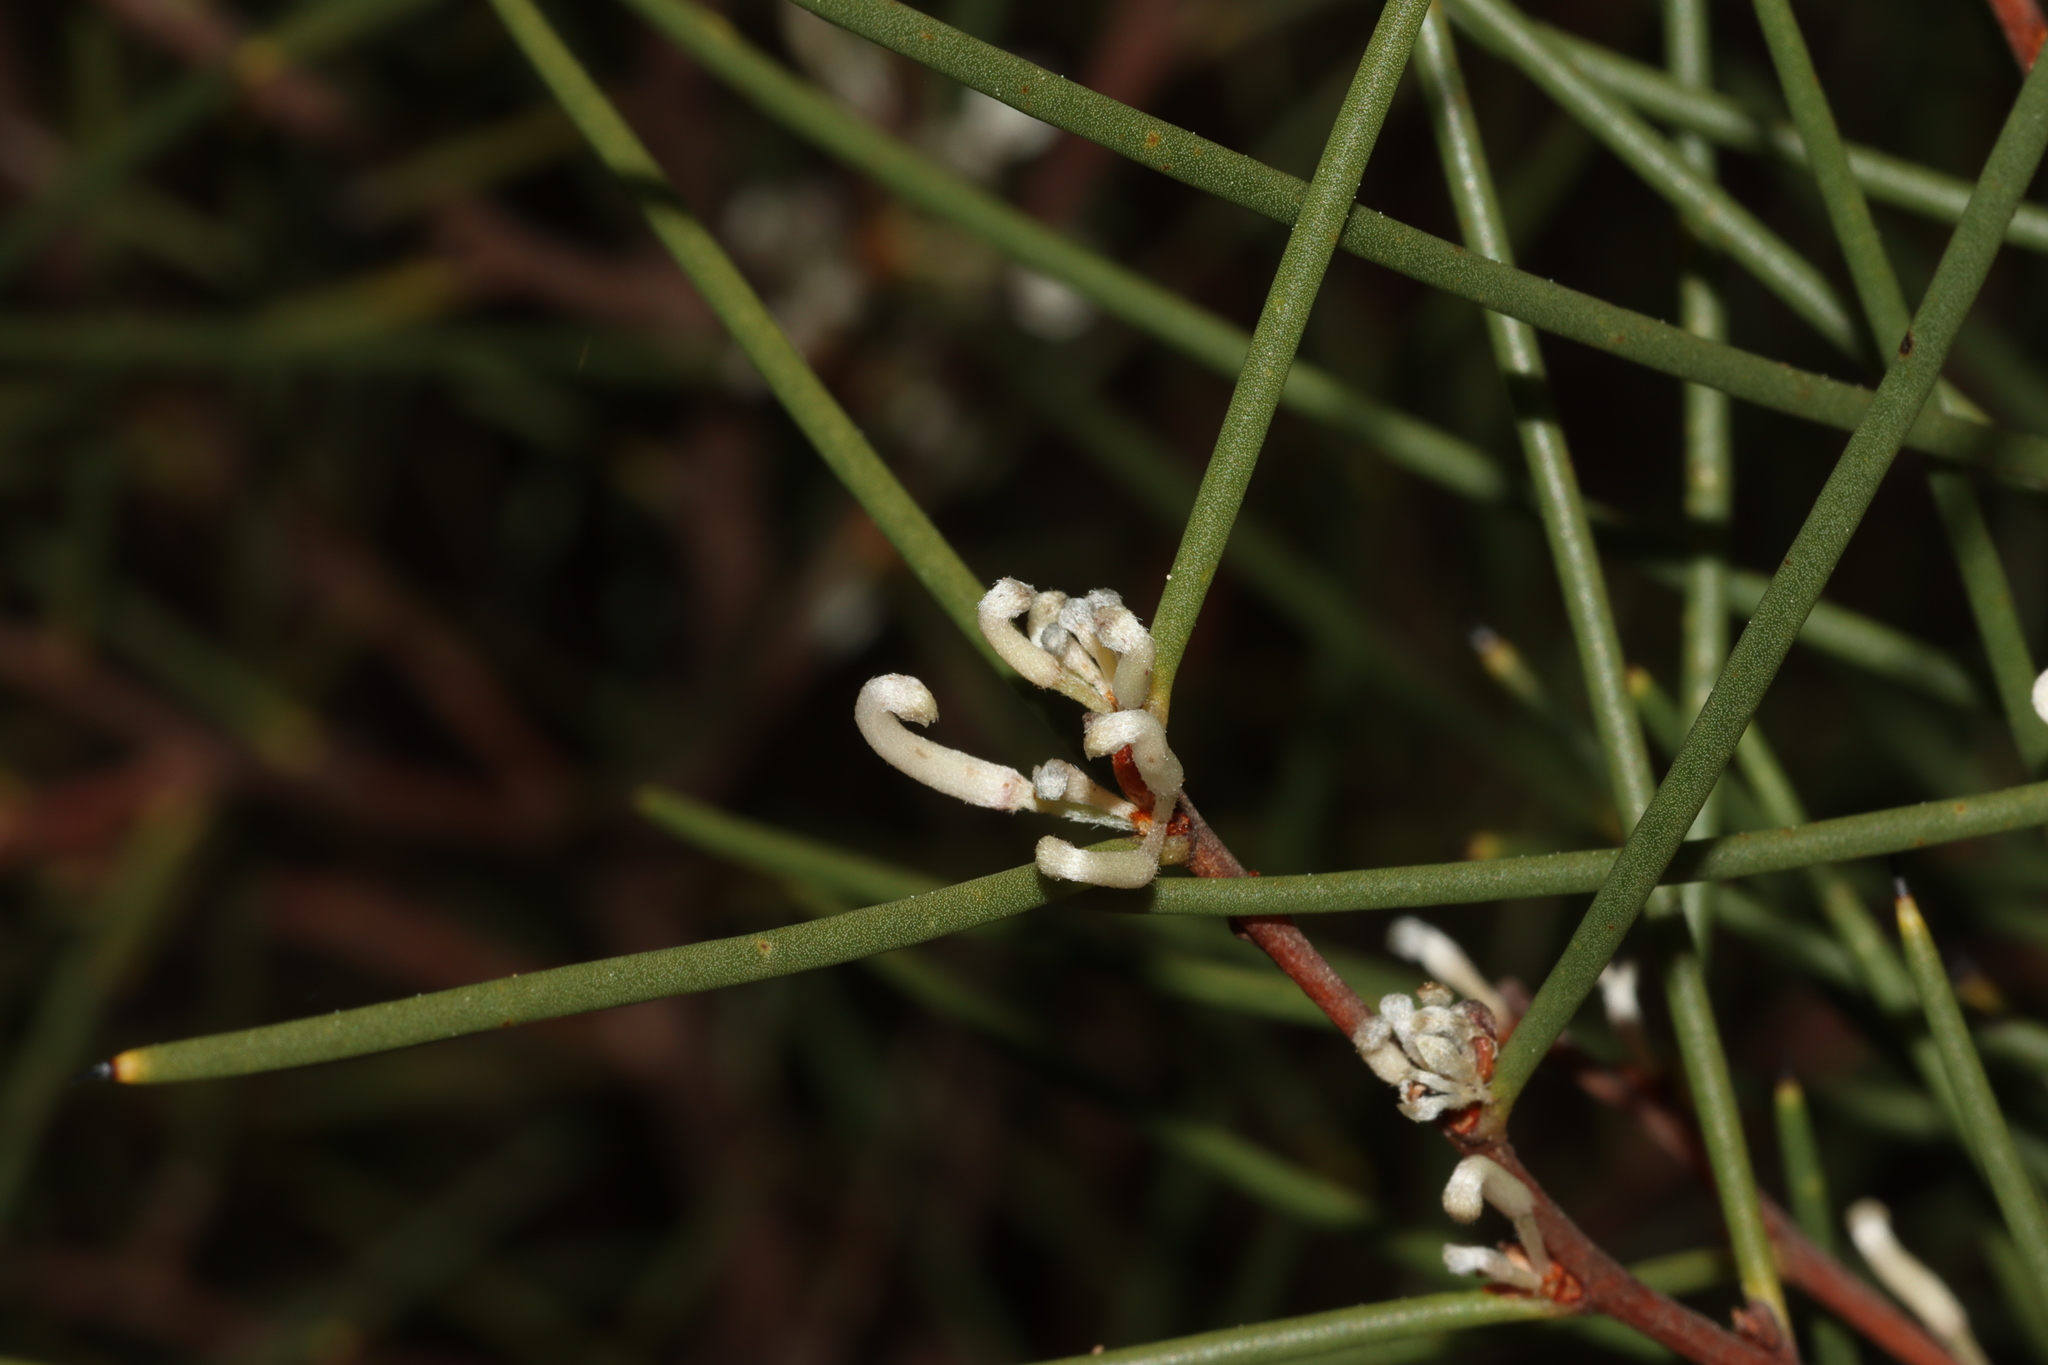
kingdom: Plantae
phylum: Tracheophyta
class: Magnoliopsida
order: Proteales
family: Proteaceae
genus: Hakea
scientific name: Hakea rostrata
